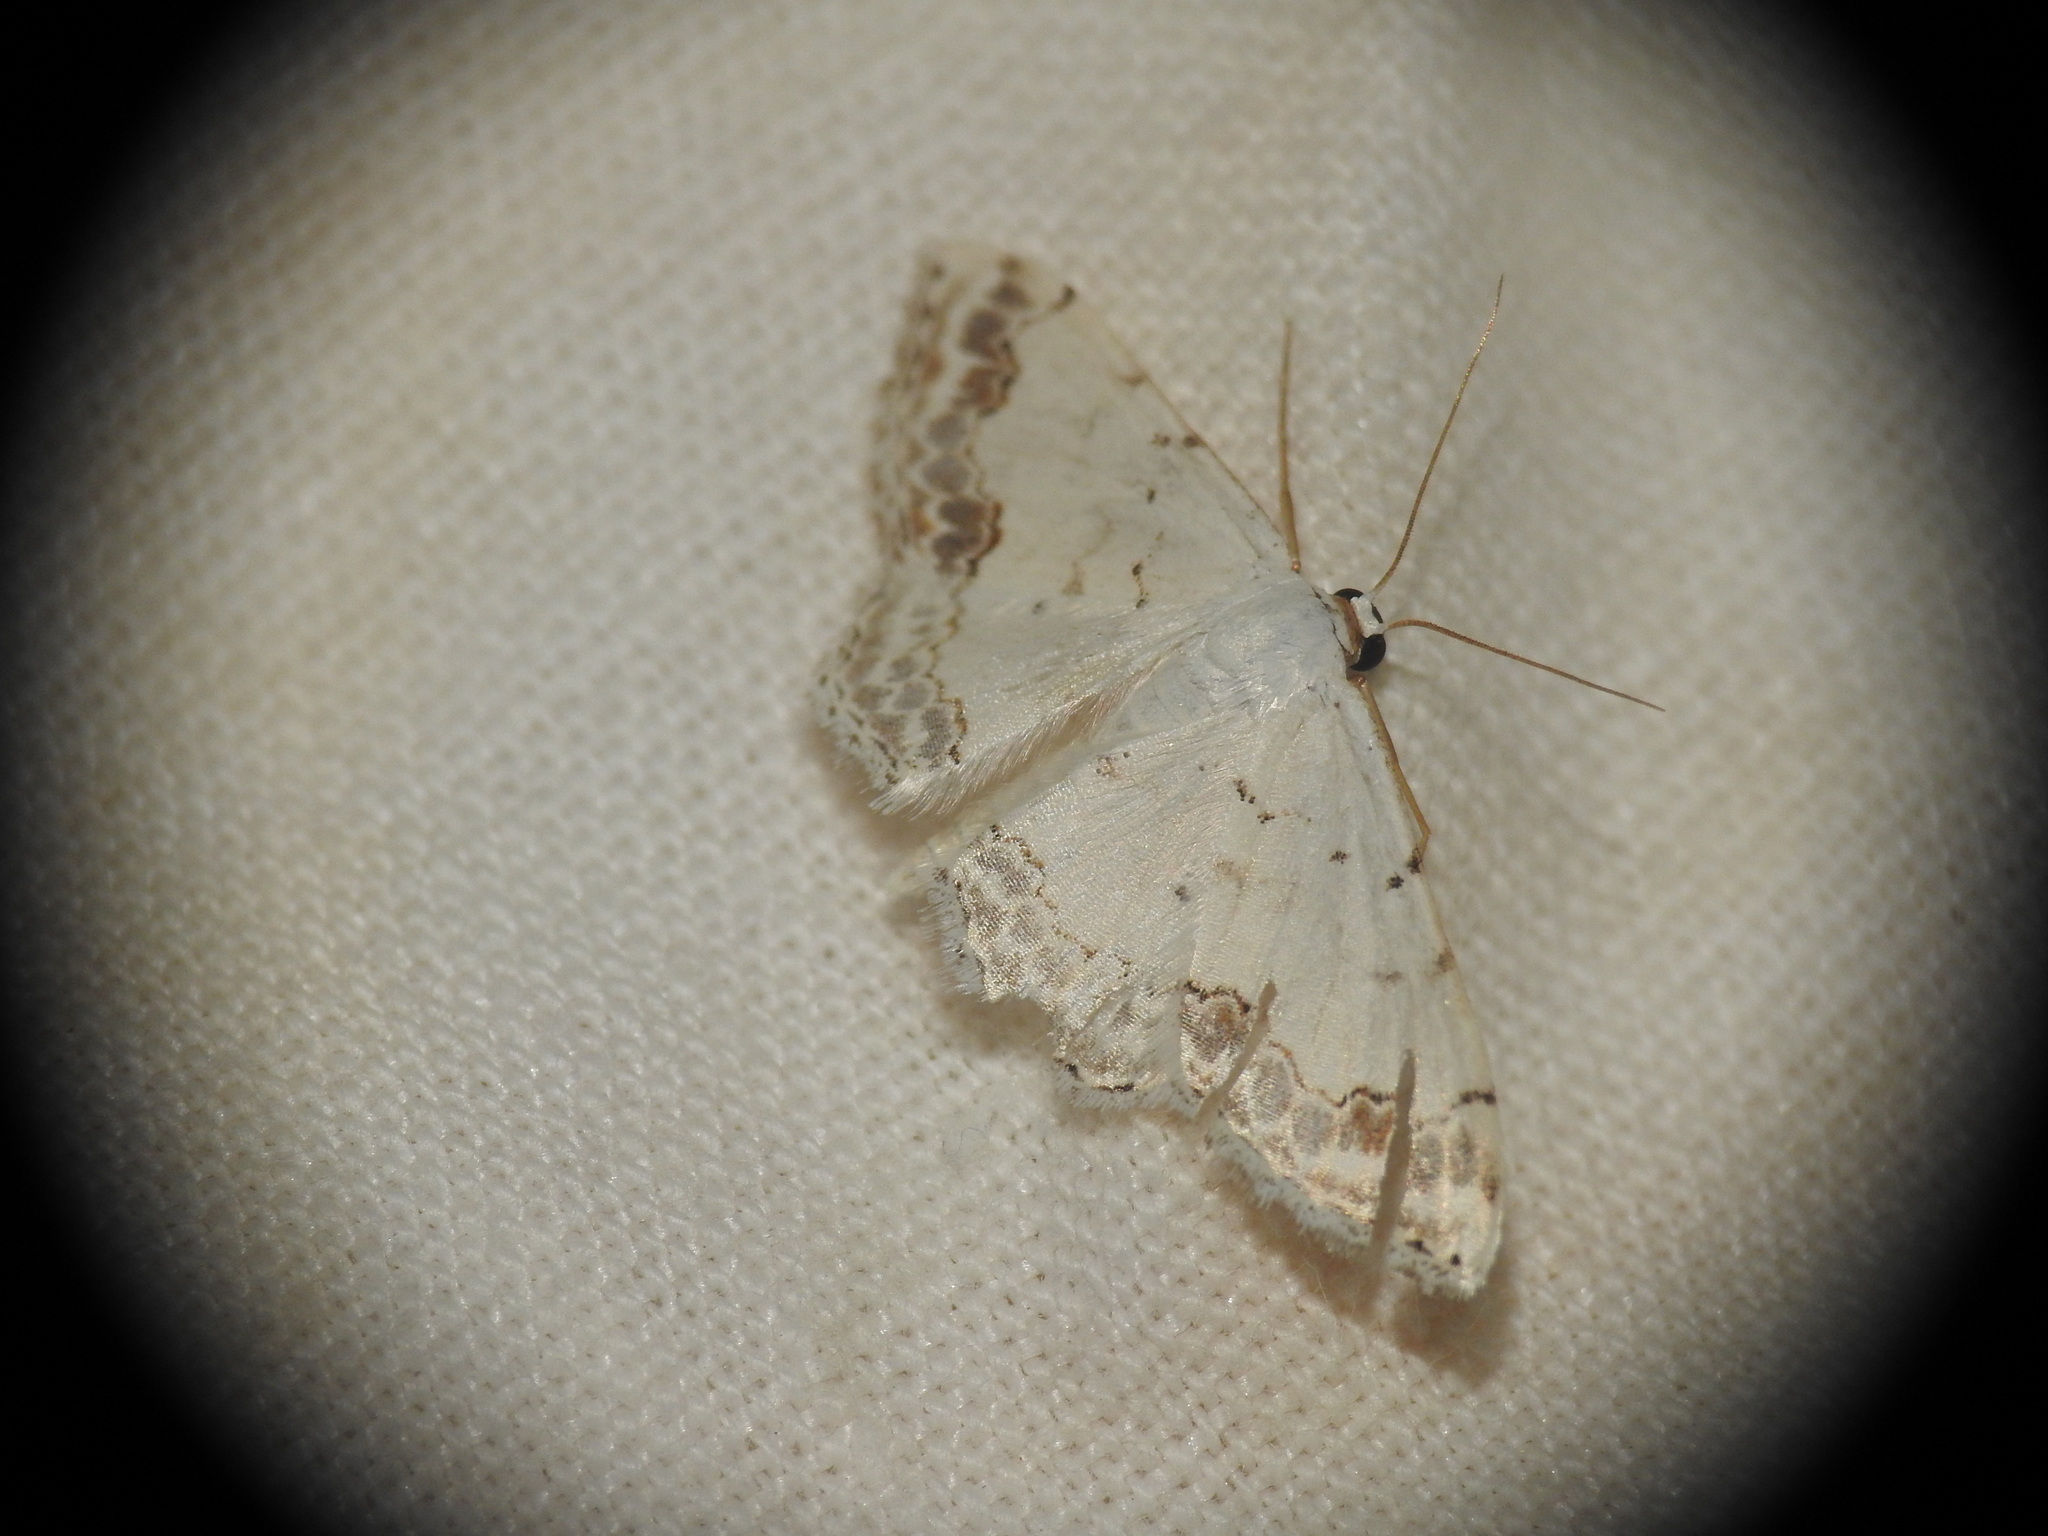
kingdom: Animalia
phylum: Arthropoda
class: Insecta
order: Lepidoptera
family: Geometridae
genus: Scopula
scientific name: Scopula ornata
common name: Lace border
